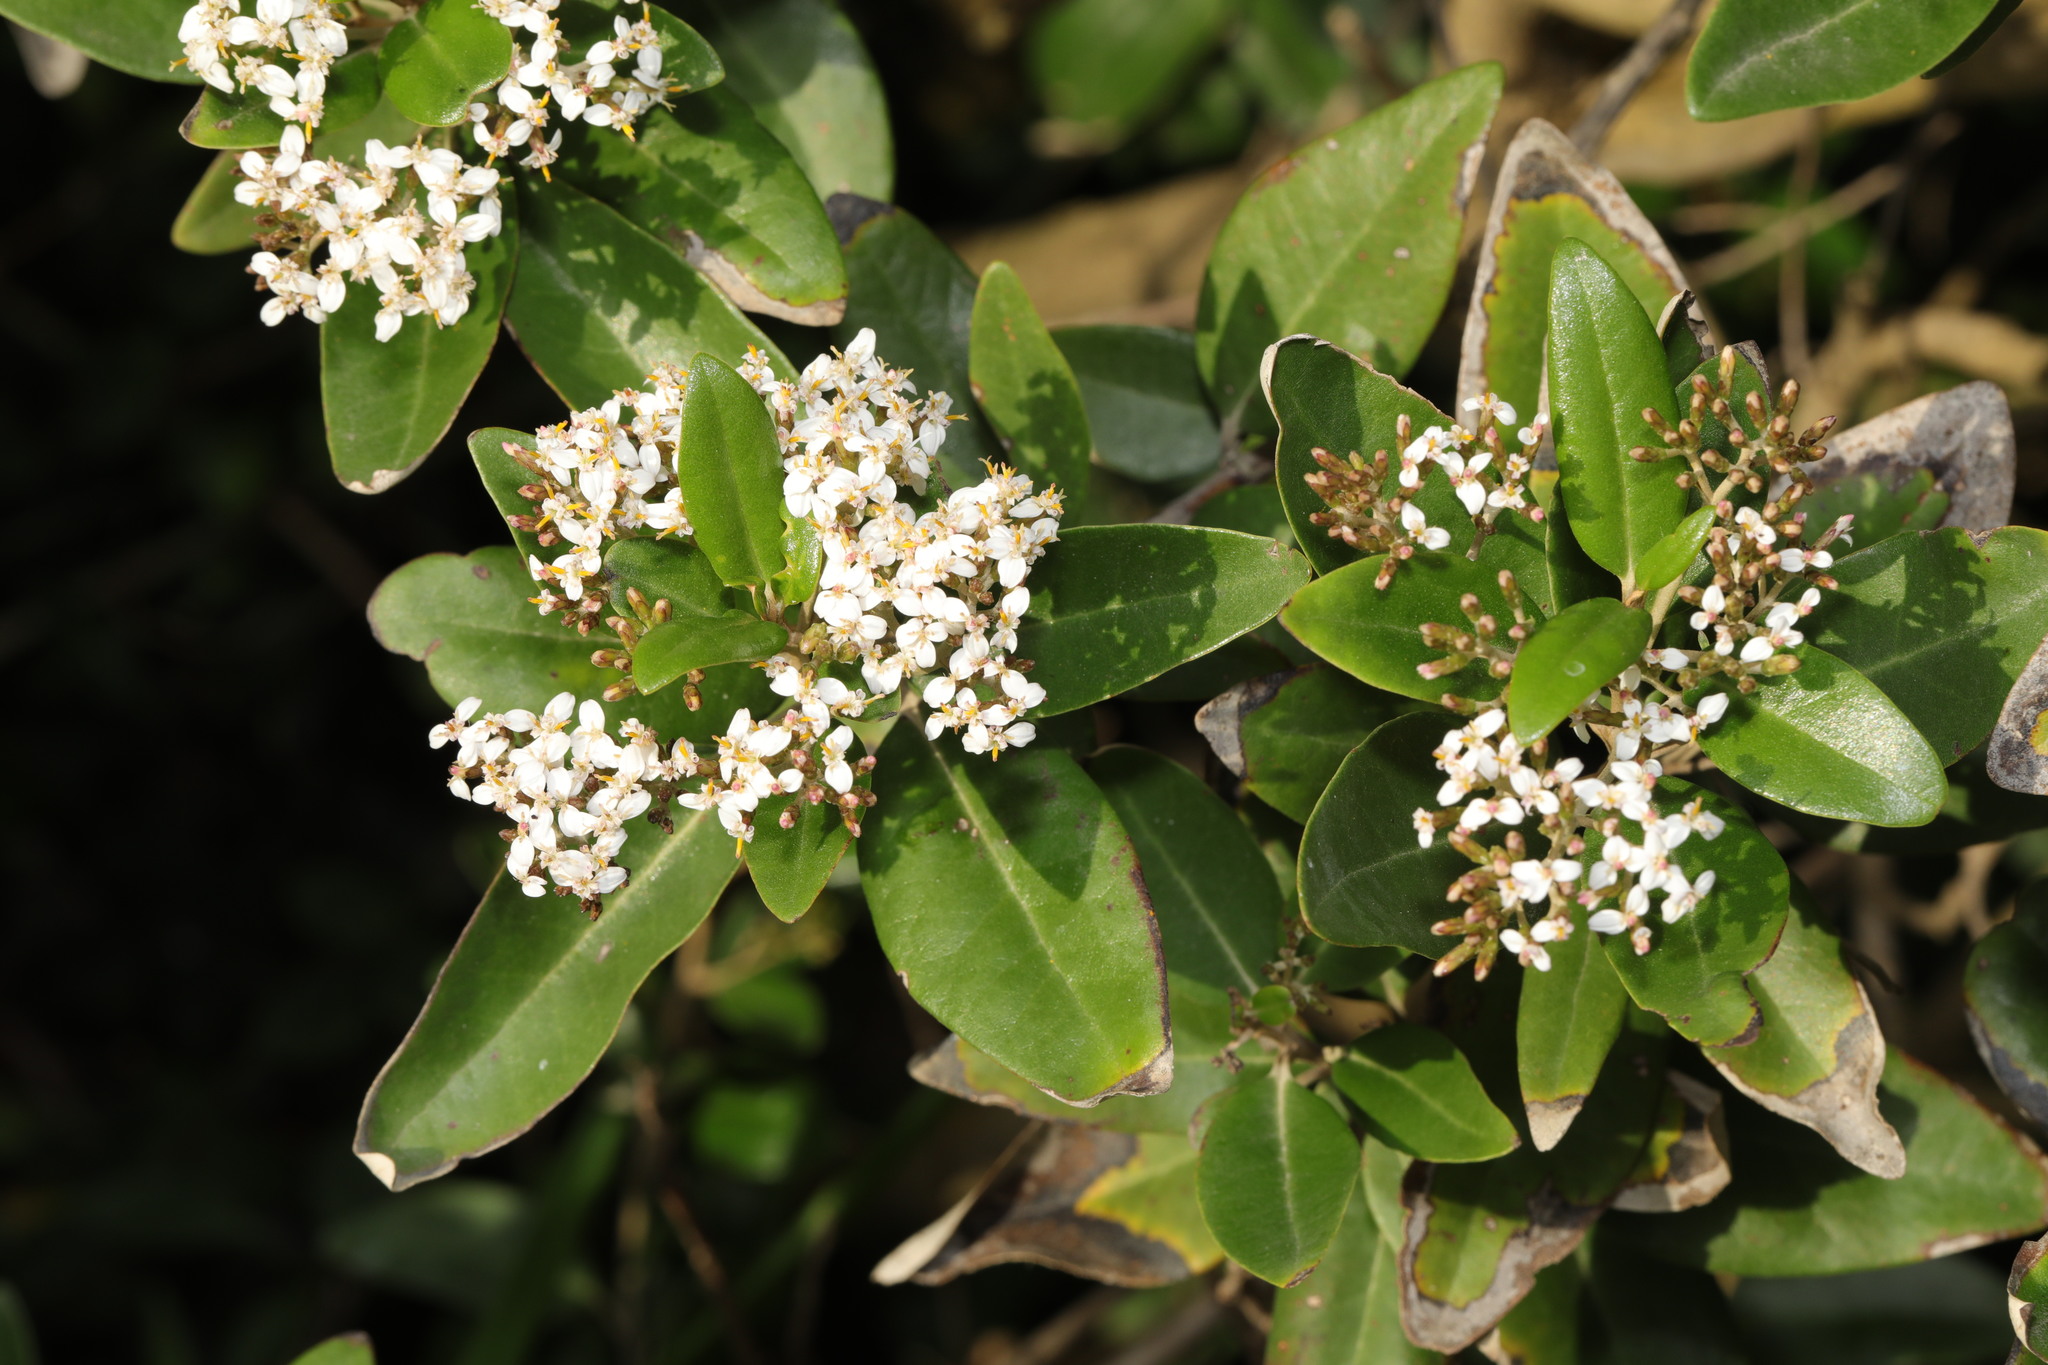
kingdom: Plantae
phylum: Tracheophyta
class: Magnoliopsida
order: Dipsacales
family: Viburnaceae
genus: Viburnum
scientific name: Viburnum tinus
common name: Laurustinus
